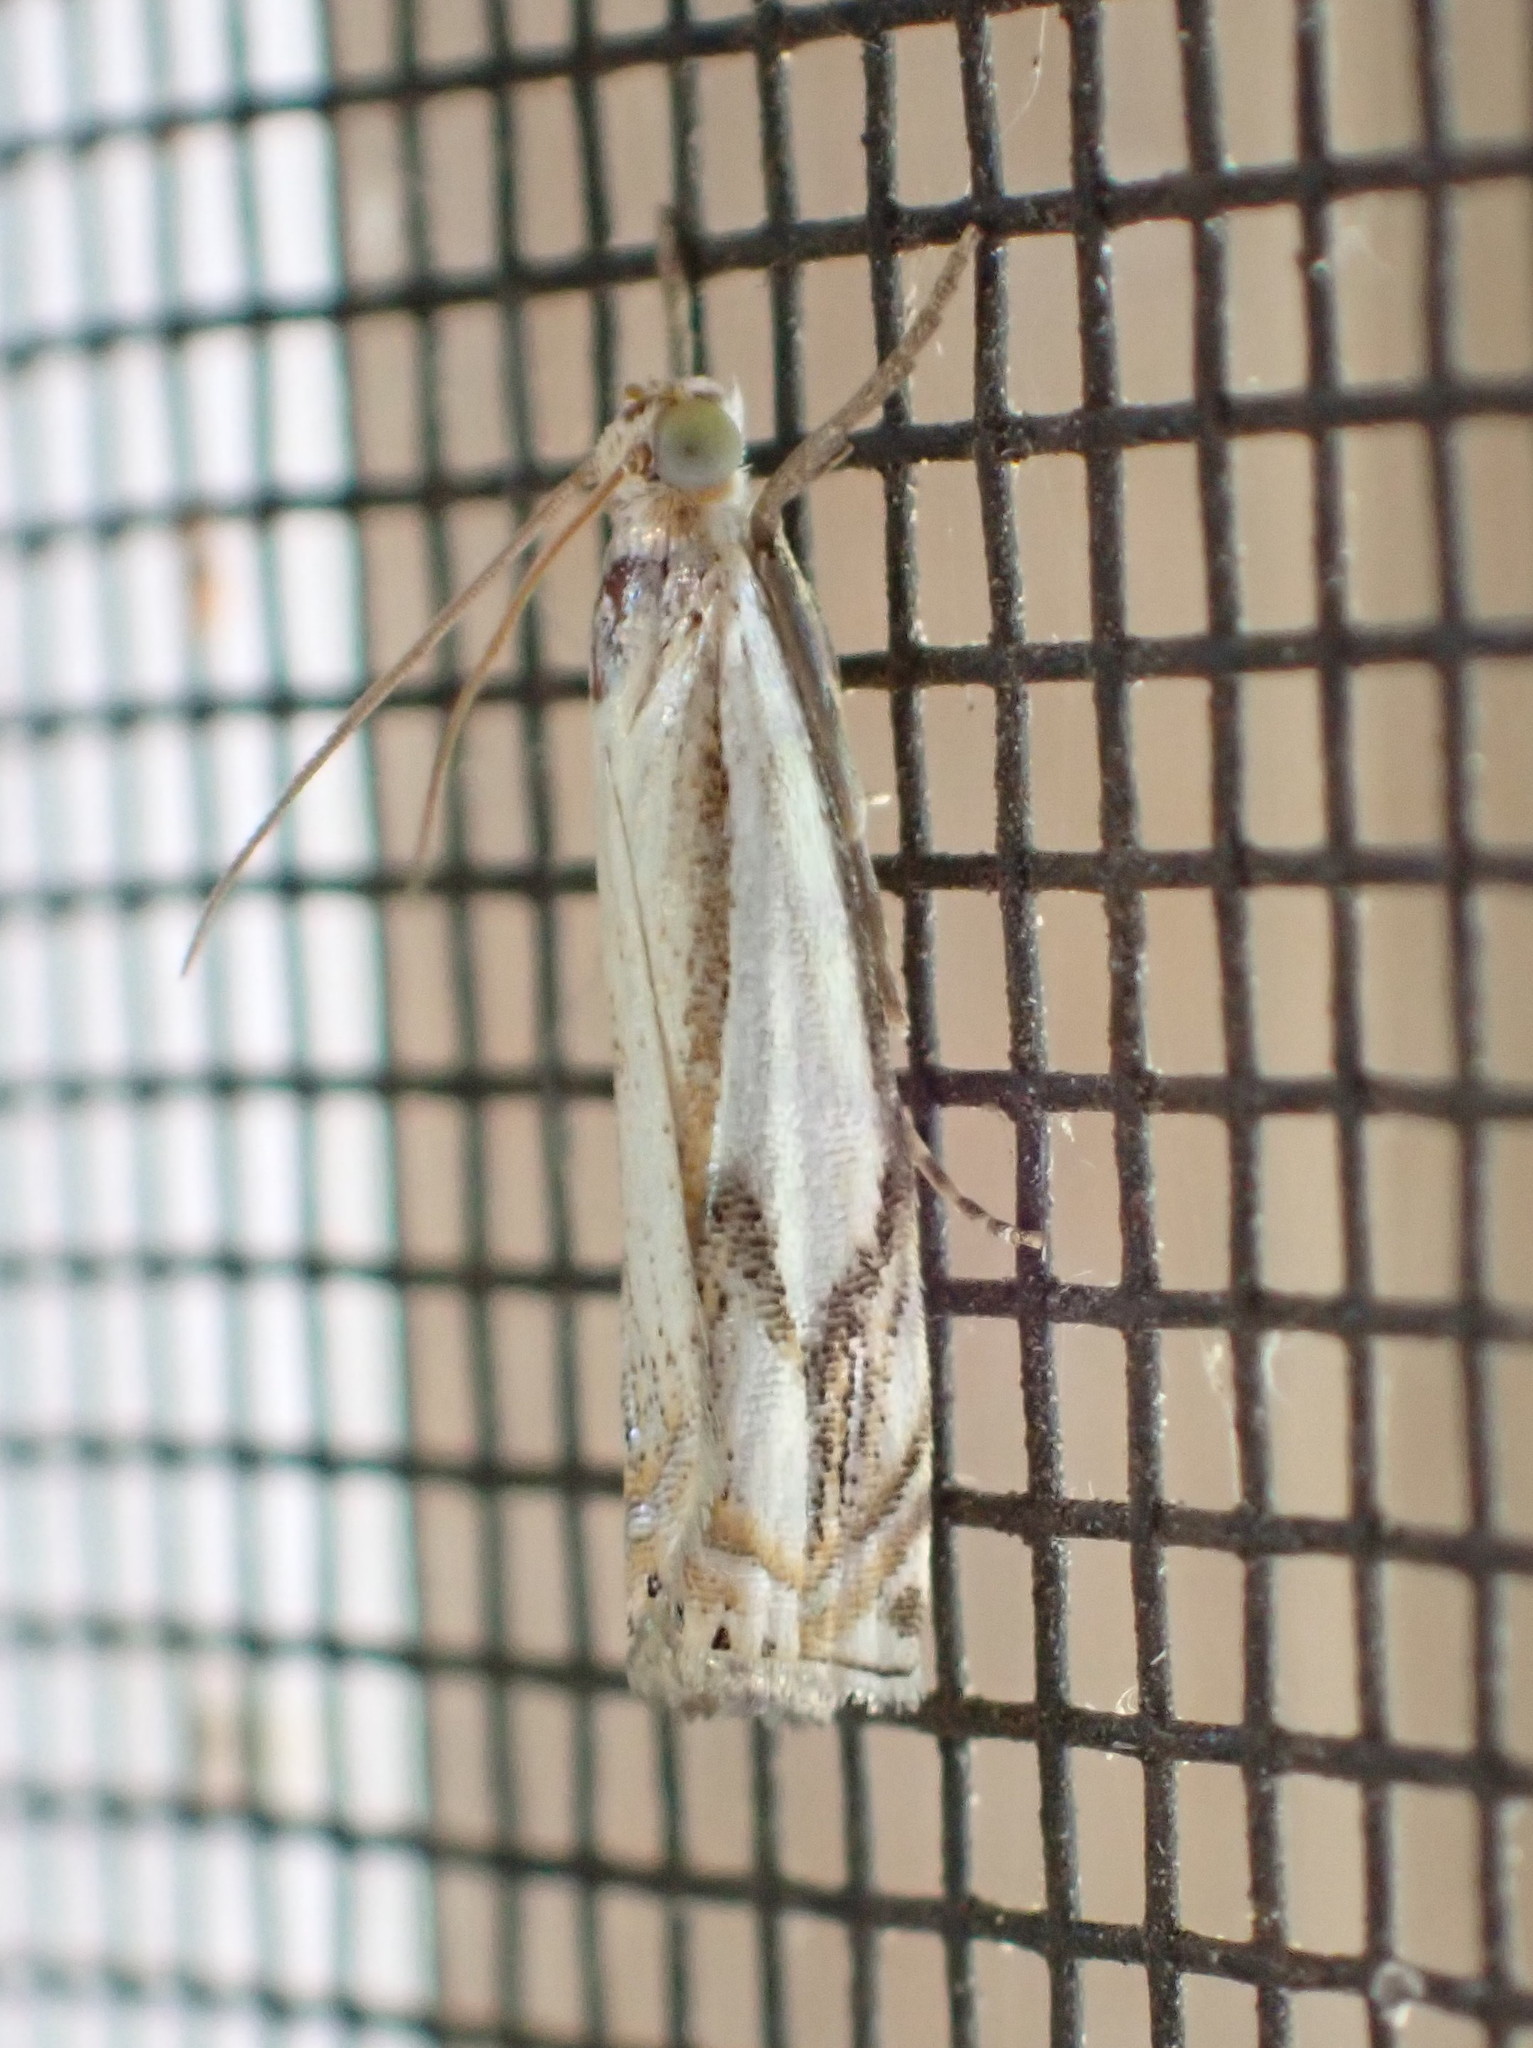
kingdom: Animalia
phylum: Arthropoda
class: Insecta
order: Lepidoptera
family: Crambidae
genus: Crambus
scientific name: Crambus agitatellus
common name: Double-banded grass-veneer
